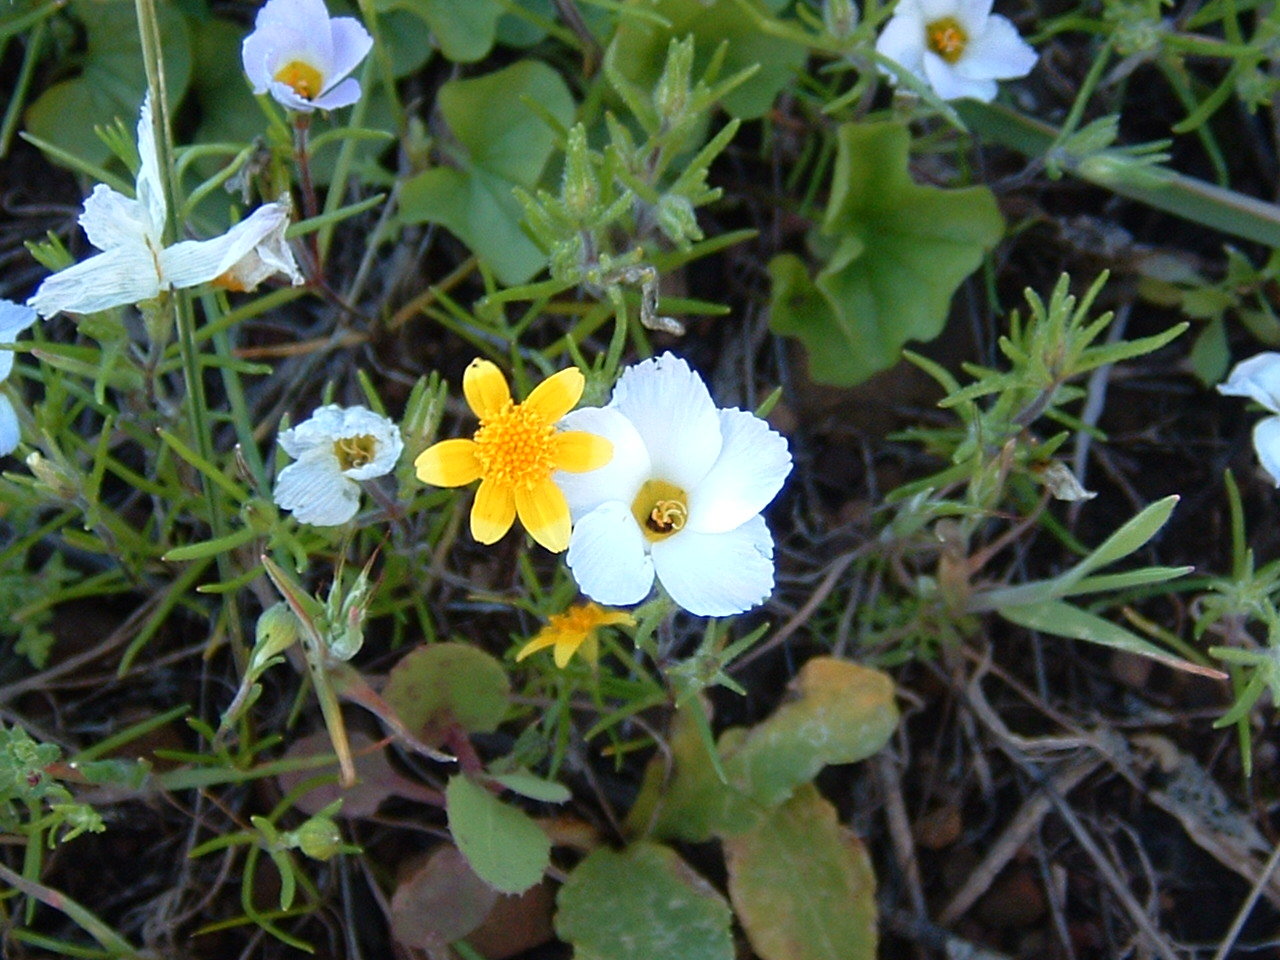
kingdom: Plantae
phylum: Tracheophyta
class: Magnoliopsida
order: Ericales
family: Polemoniaceae
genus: Linanthus
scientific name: Linanthus dianthiflorus
